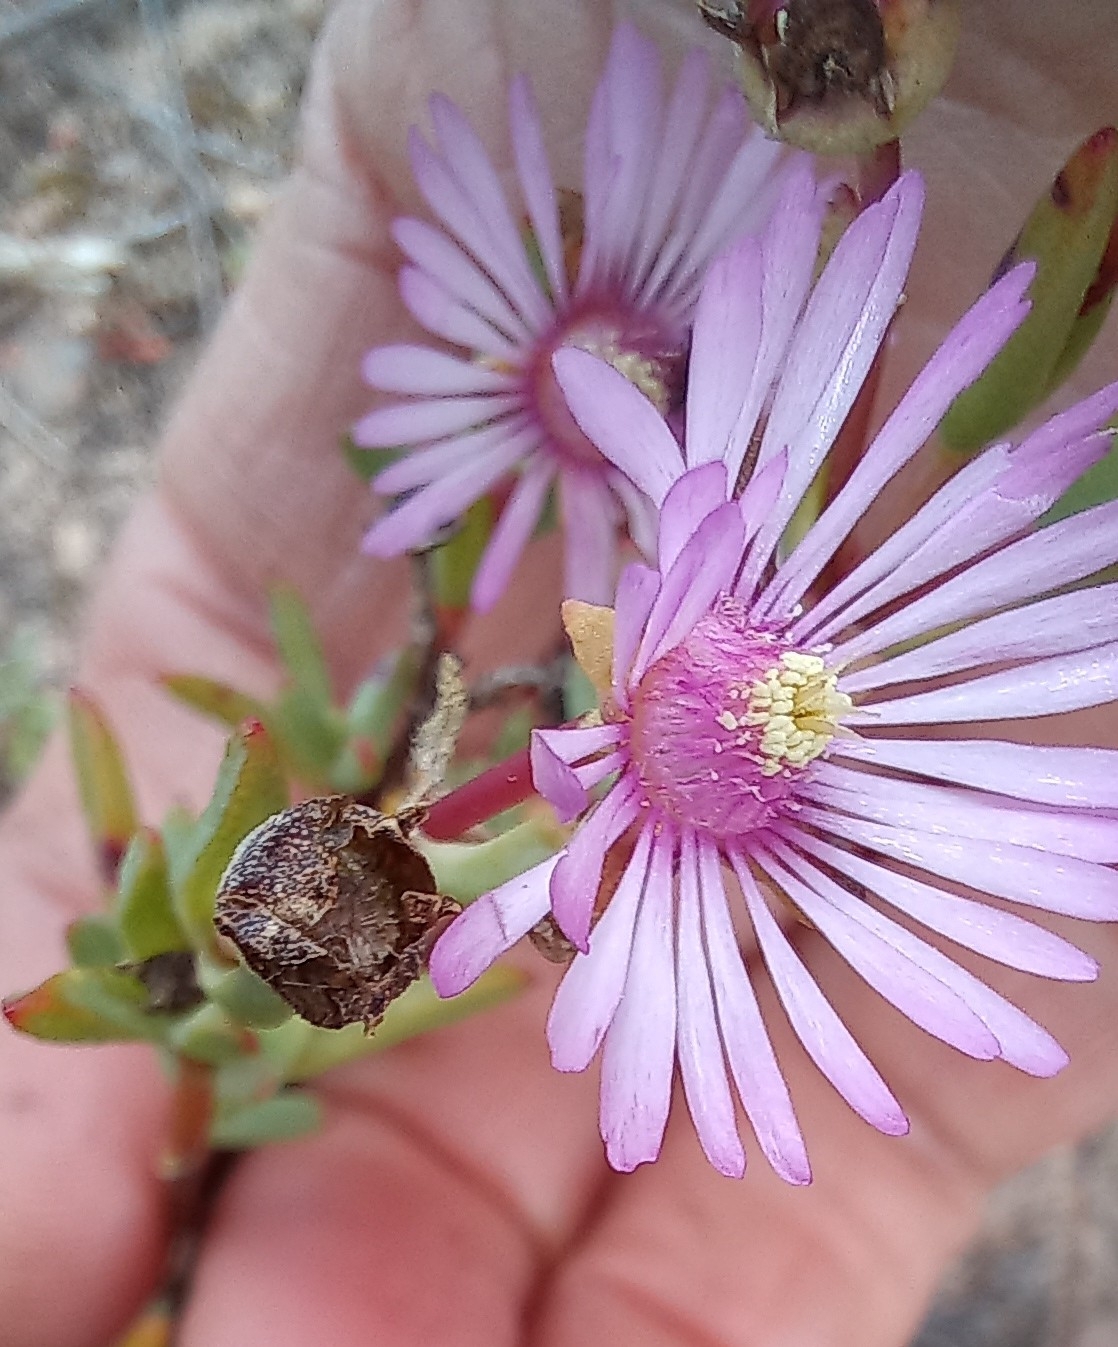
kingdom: Plantae
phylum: Tracheophyta
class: Magnoliopsida
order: Caryophyllales
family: Aizoaceae
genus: Lampranthus
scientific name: Lampranthus elegans
